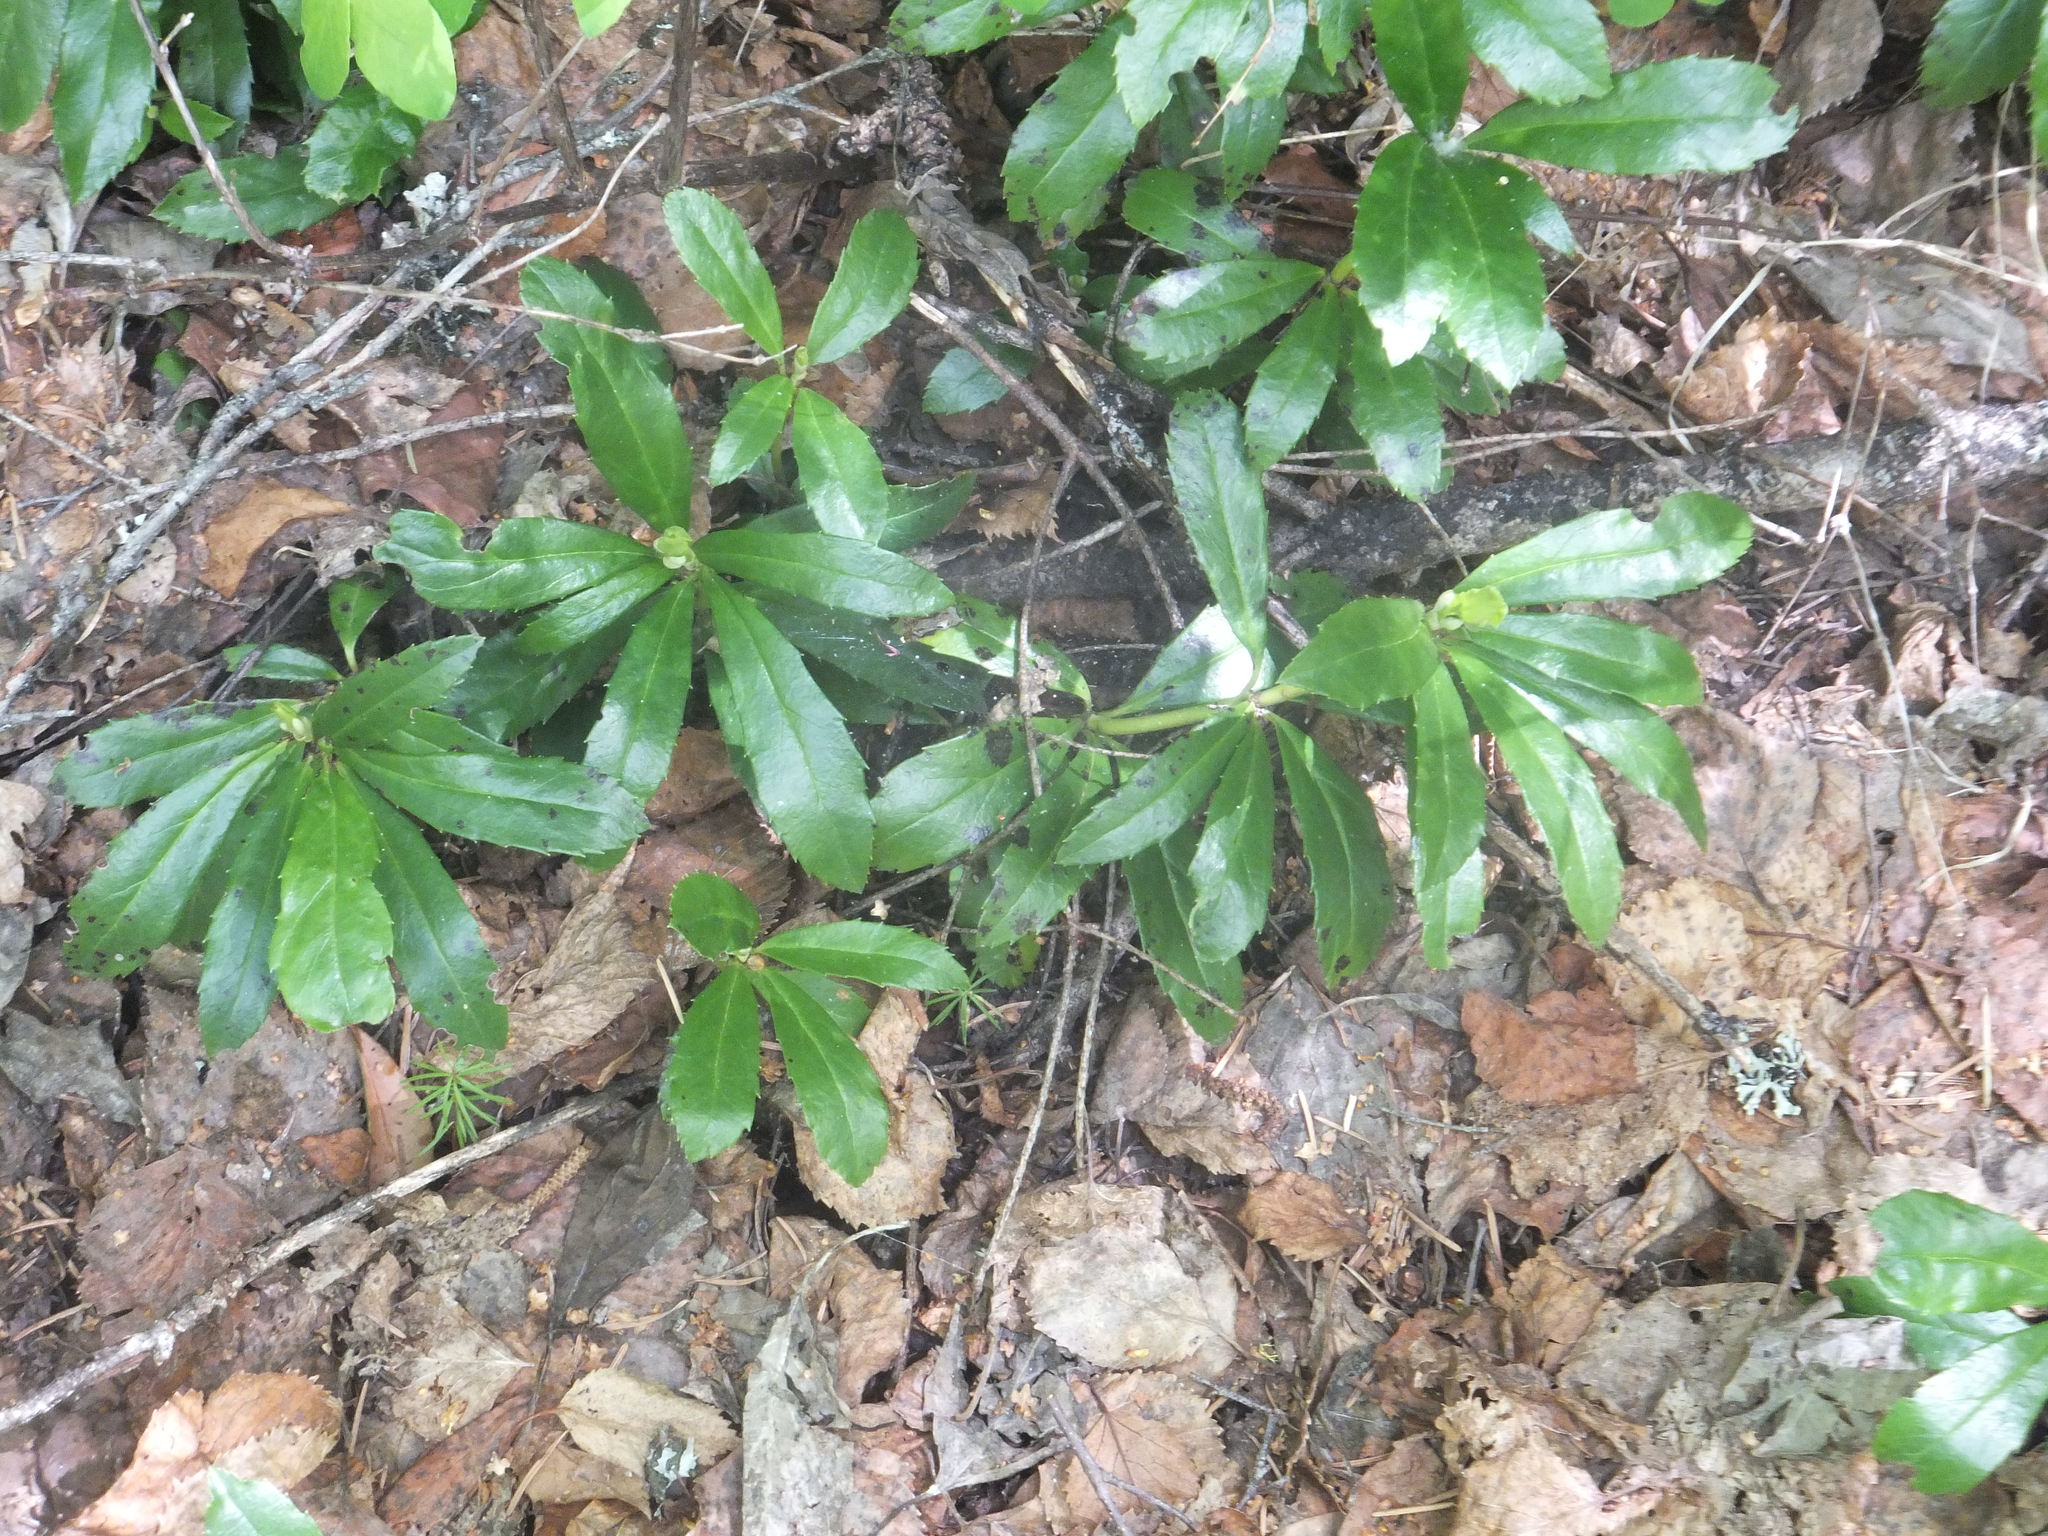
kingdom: Plantae
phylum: Tracheophyta
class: Magnoliopsida
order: Ericales
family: Ericaceae
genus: Chimaphila
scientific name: Chimaphila umbellata
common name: Pipsissewa
